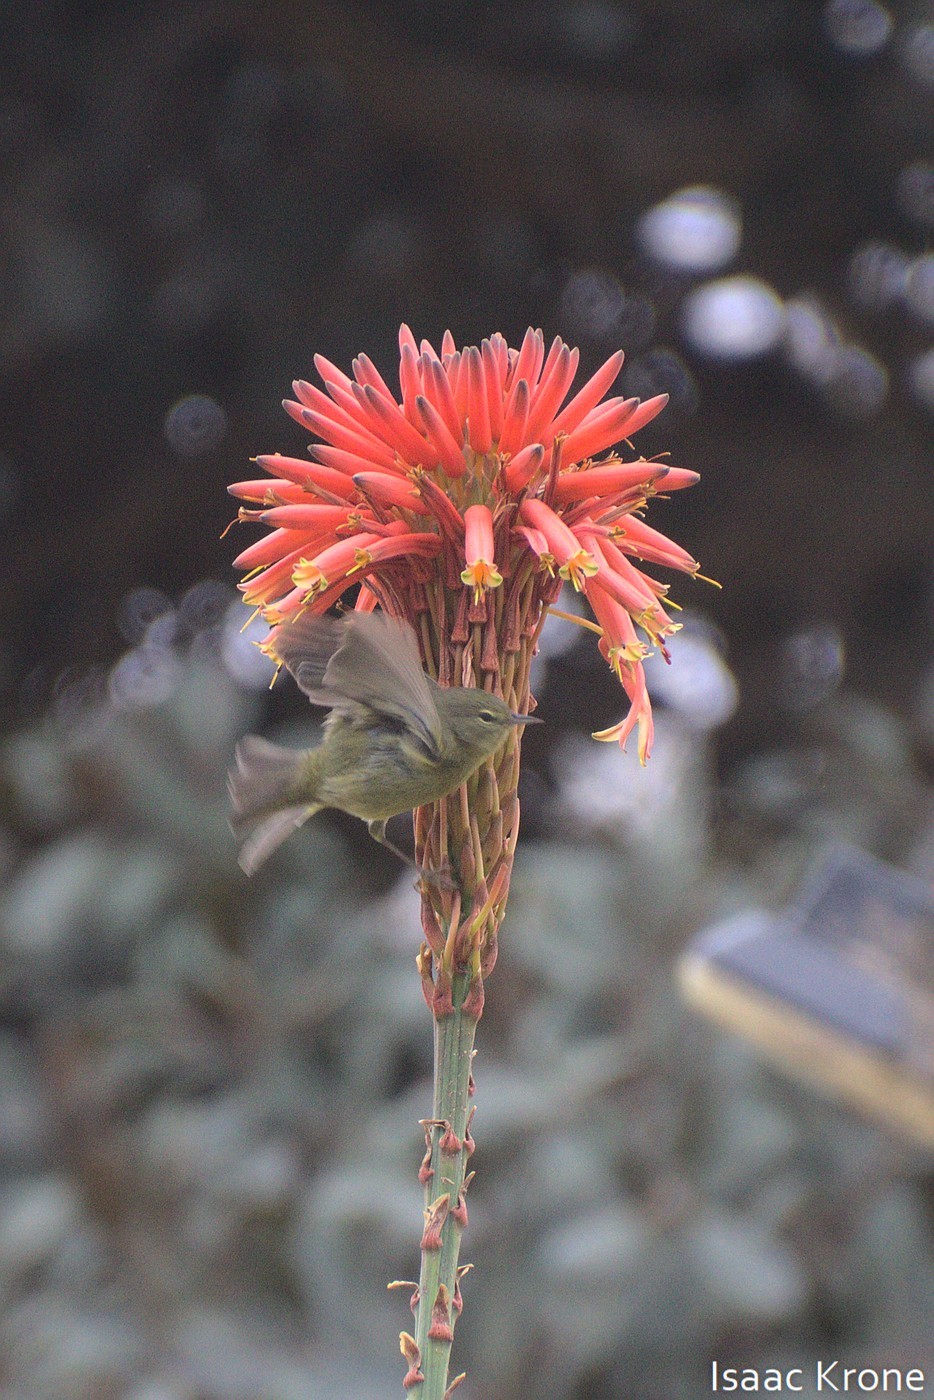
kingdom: Animalia
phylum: Chordata
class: Aves
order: Passeriformes
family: Parulidae
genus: Leiothlypis
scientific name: Leiothlypis celata
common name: Orange-crowned warbler
